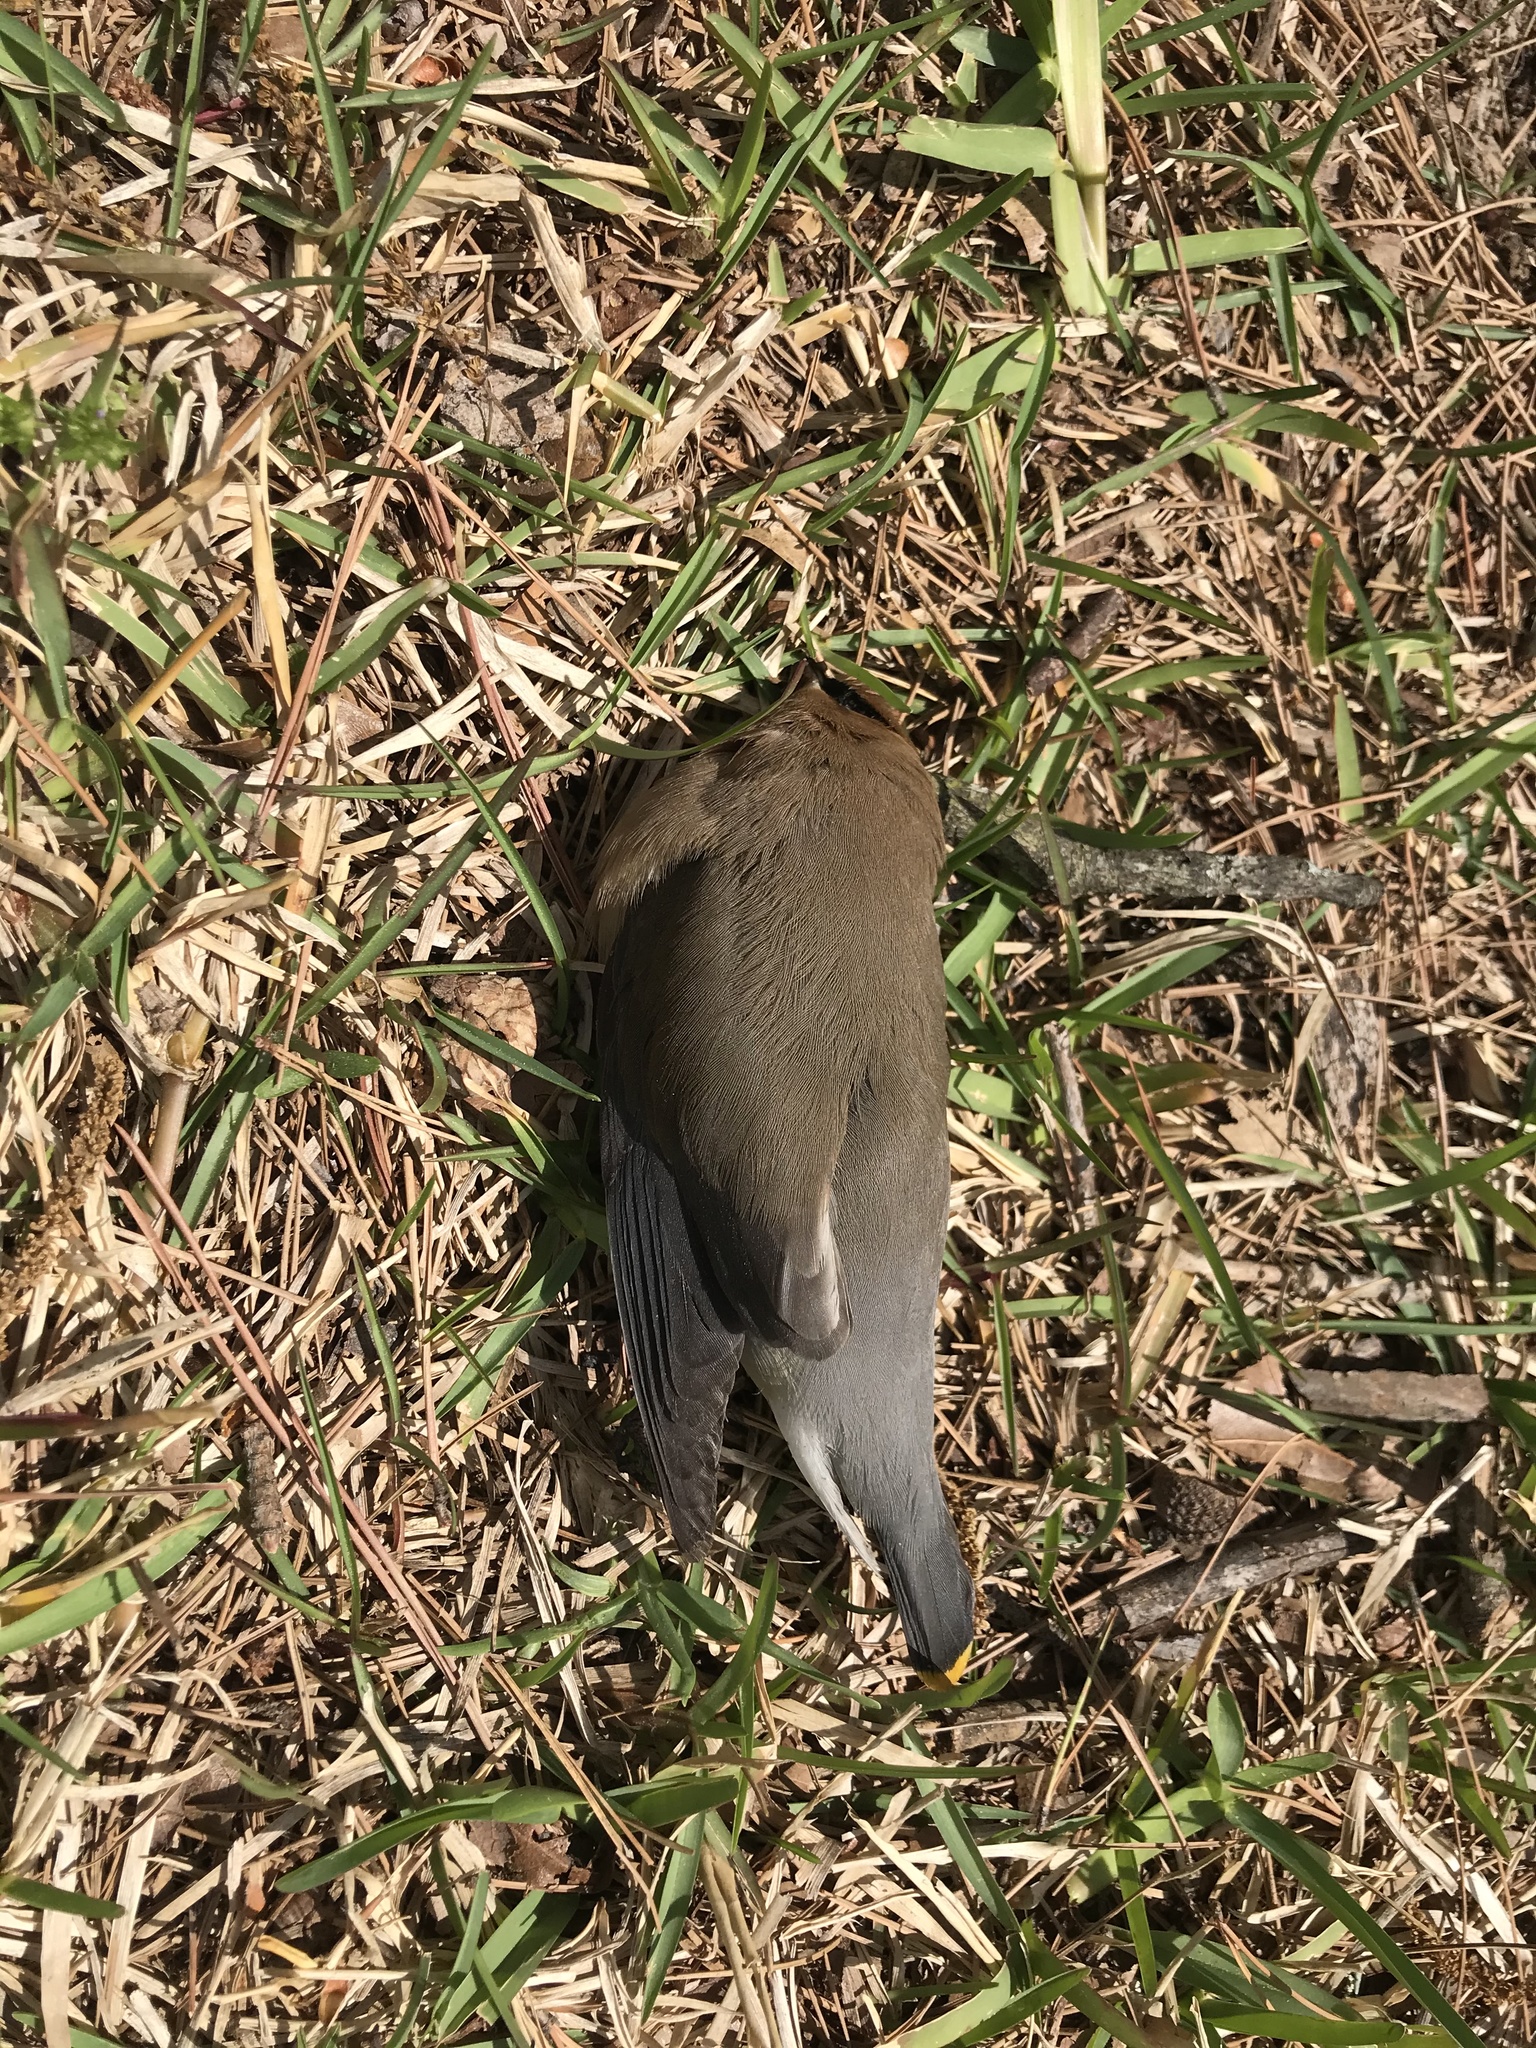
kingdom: Animalia
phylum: Chordata
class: Aves
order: Passeriformes
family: Bombycillidae
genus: Bombycilla
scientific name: Bombycilla cedrorum
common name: Cedar waxwing
